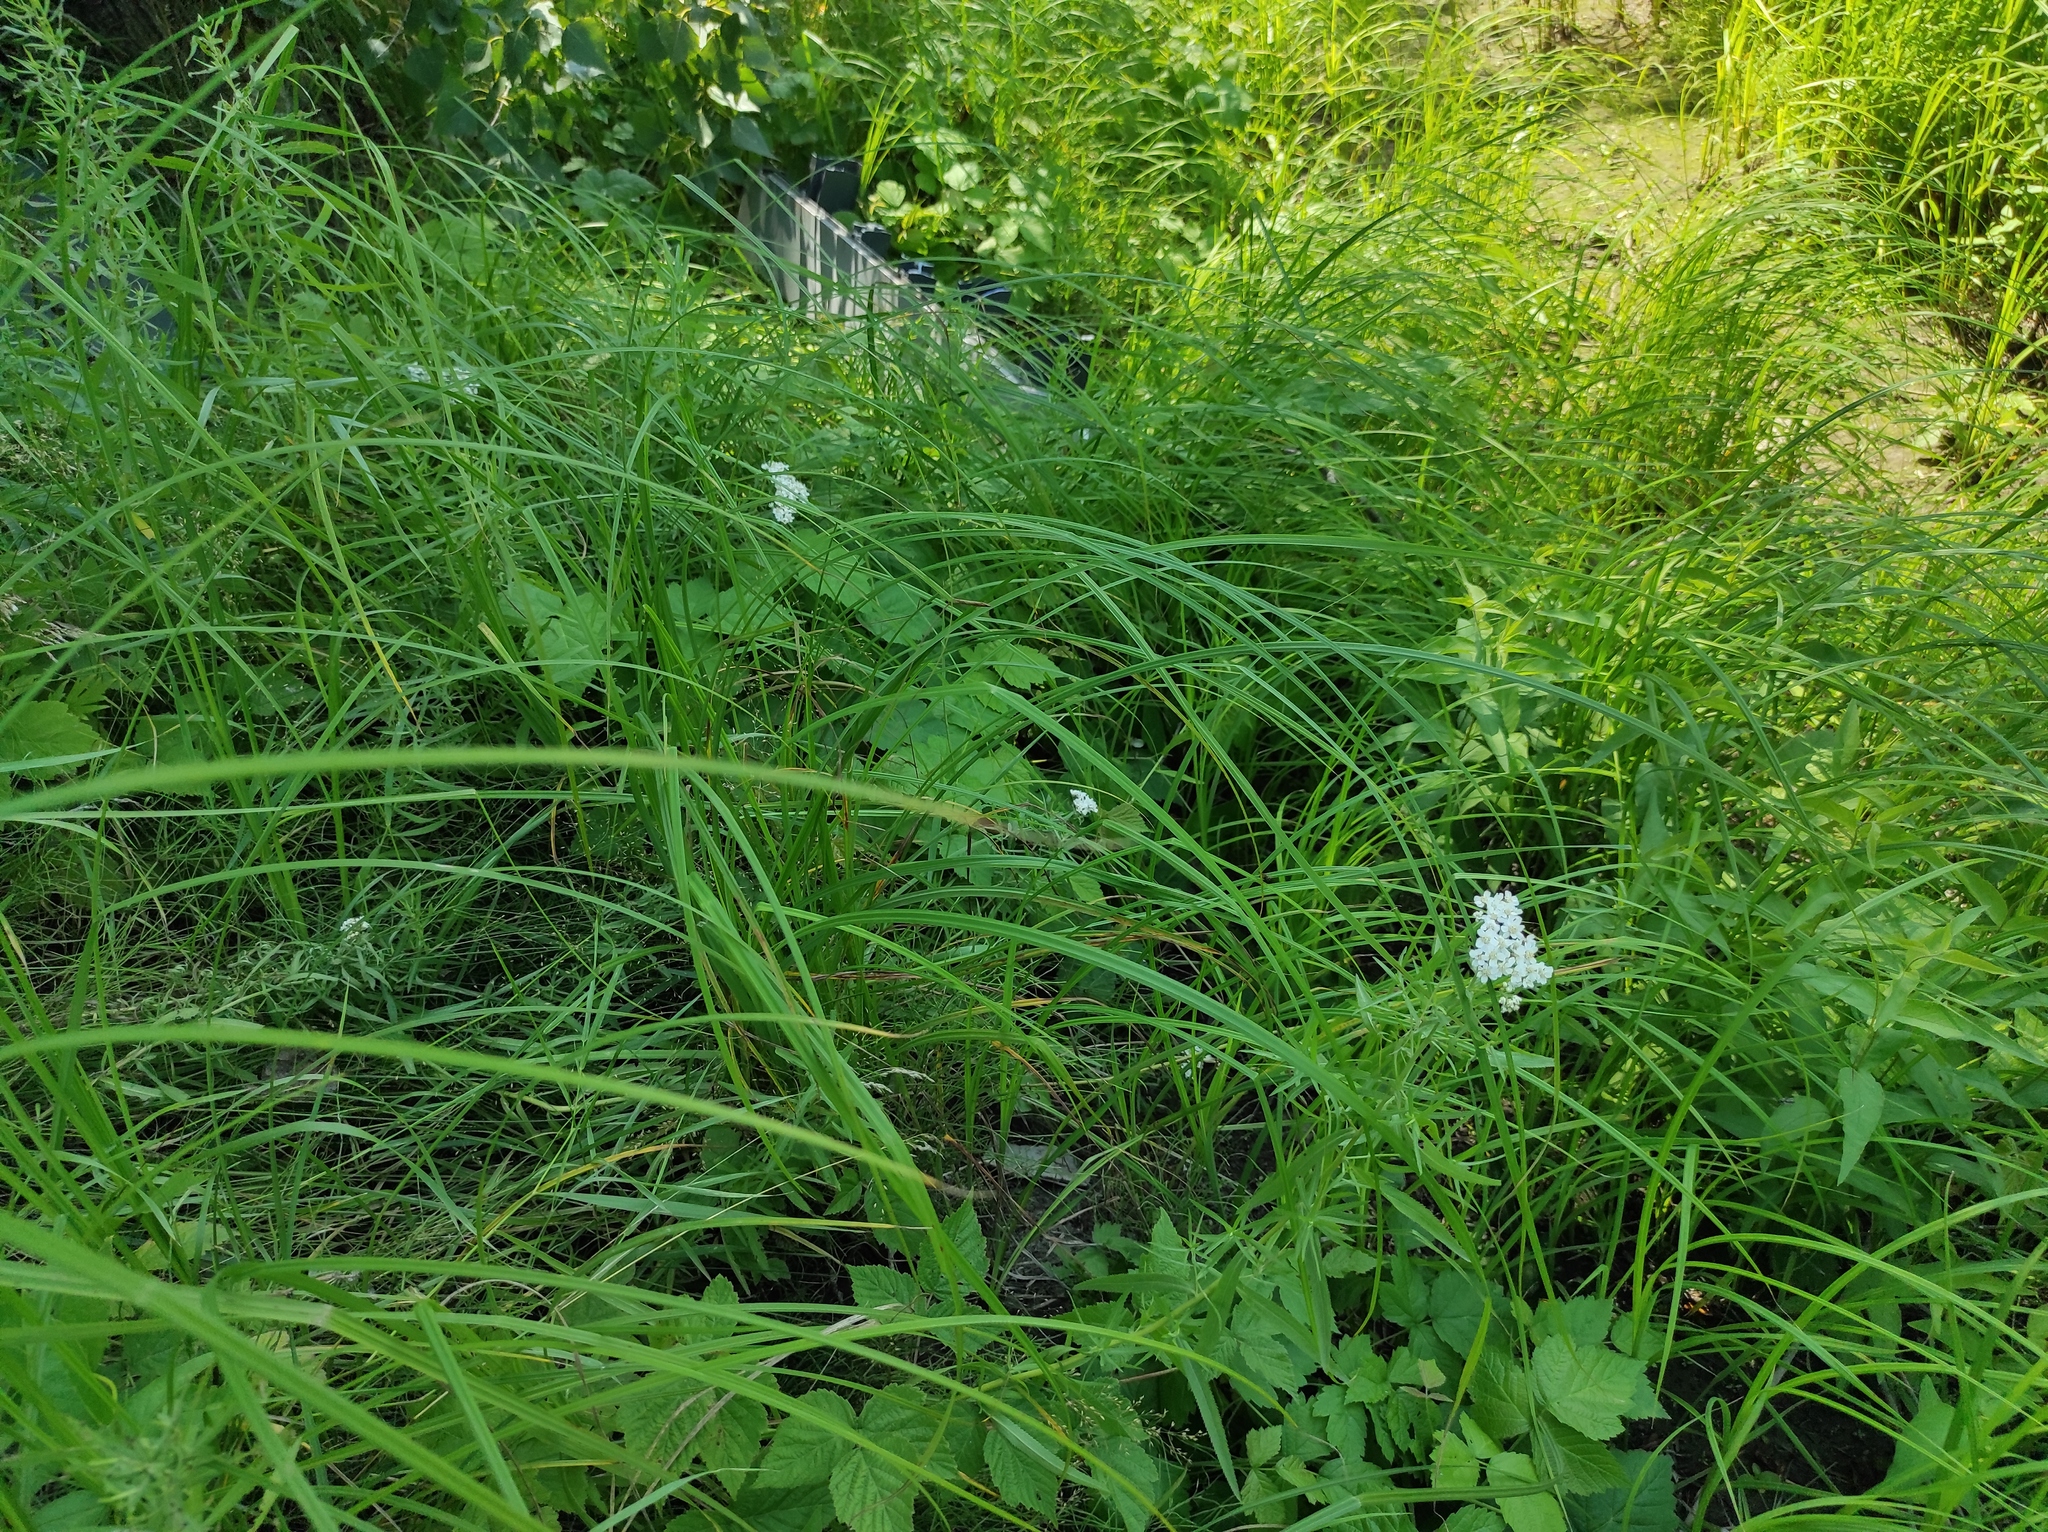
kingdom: Plantae
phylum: Tracheophyta
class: Magnoliopsida
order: Asterales
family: Asteraceae
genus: Achillea
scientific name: Achillea salicifolia
